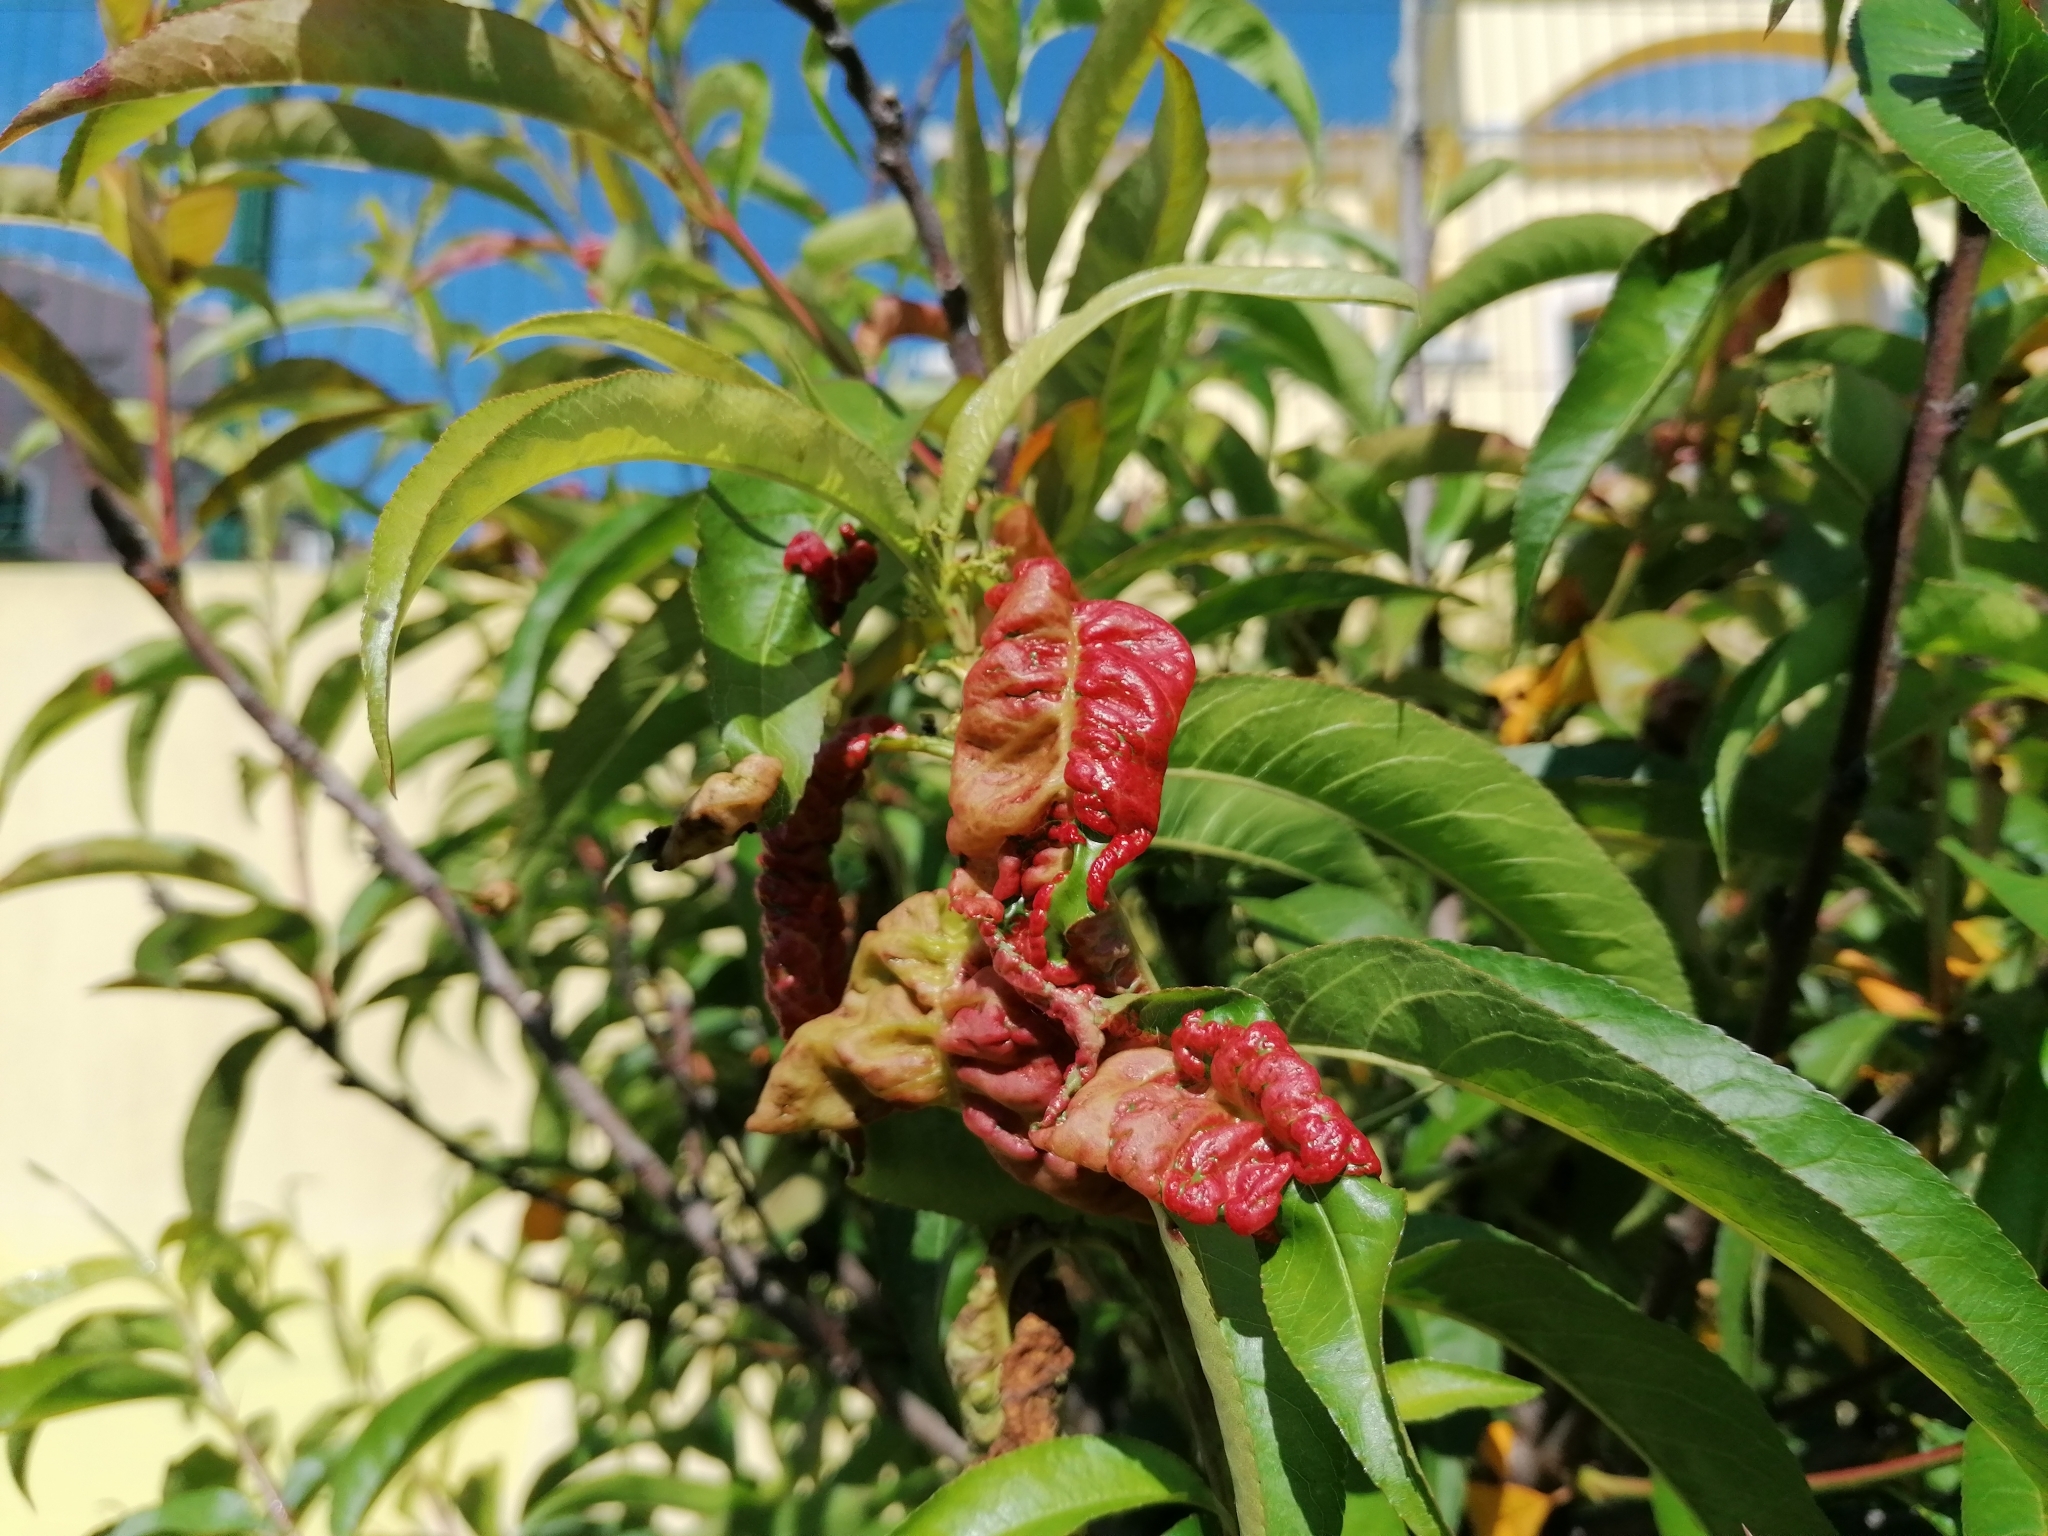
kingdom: Fungi
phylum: Ascomycota
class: Taphrinomycetes
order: Taphrinales
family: Taphrinaceae
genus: Taphrina
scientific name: Taphrina deformans
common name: Peach leaf curl
